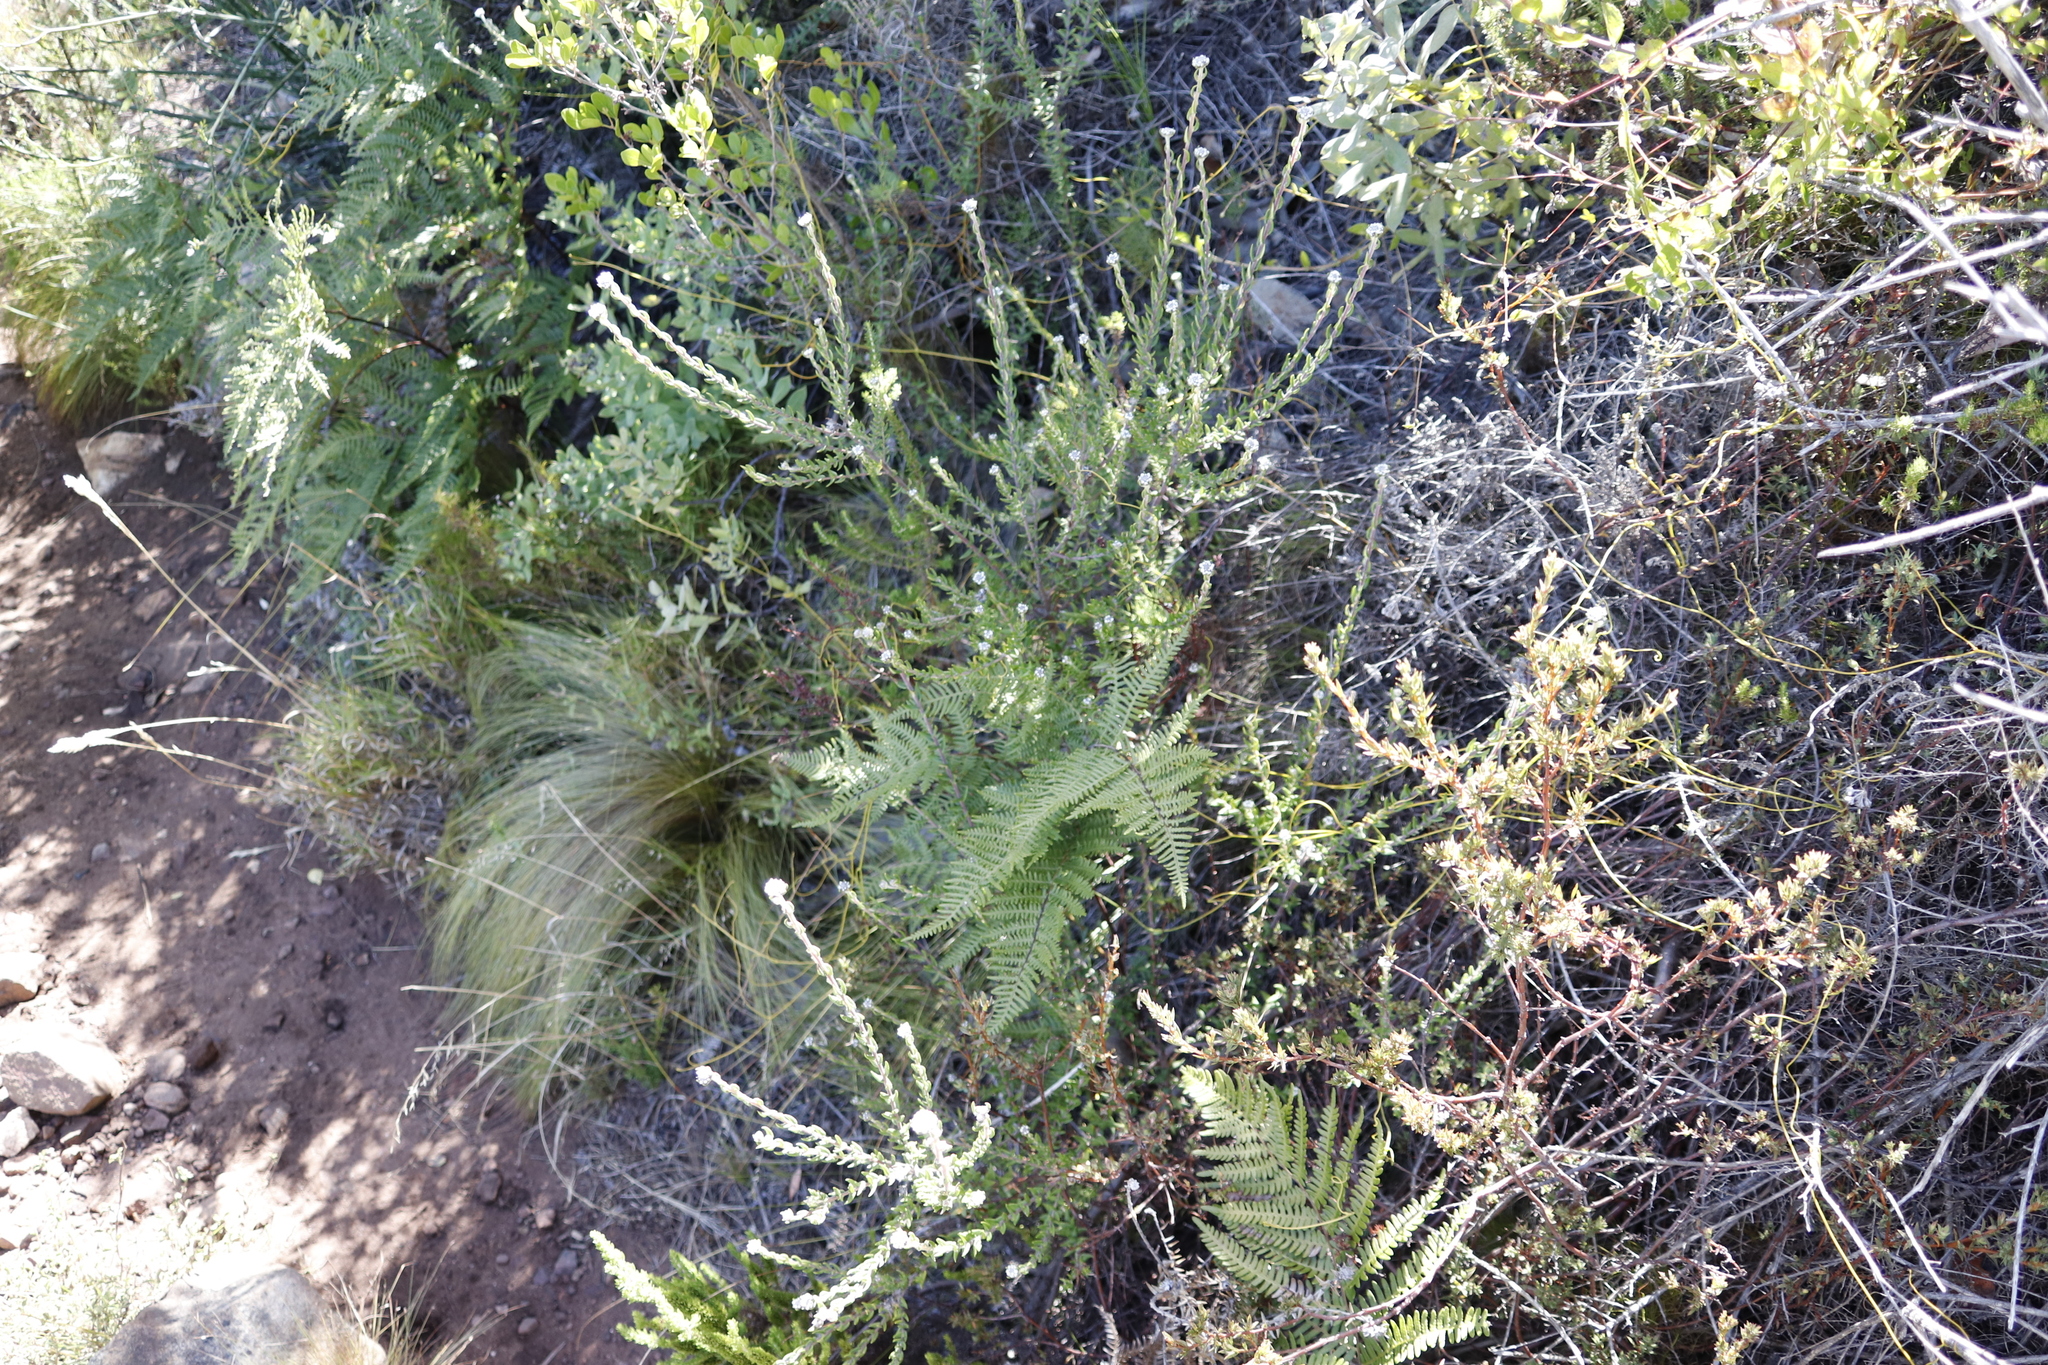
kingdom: Plantae
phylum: Tracheophyta
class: Polypodiopsida
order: Polypodiales
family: Dennstaedtiaceae
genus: Pteridium
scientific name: Pteridium aquilinum
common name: Bracken
